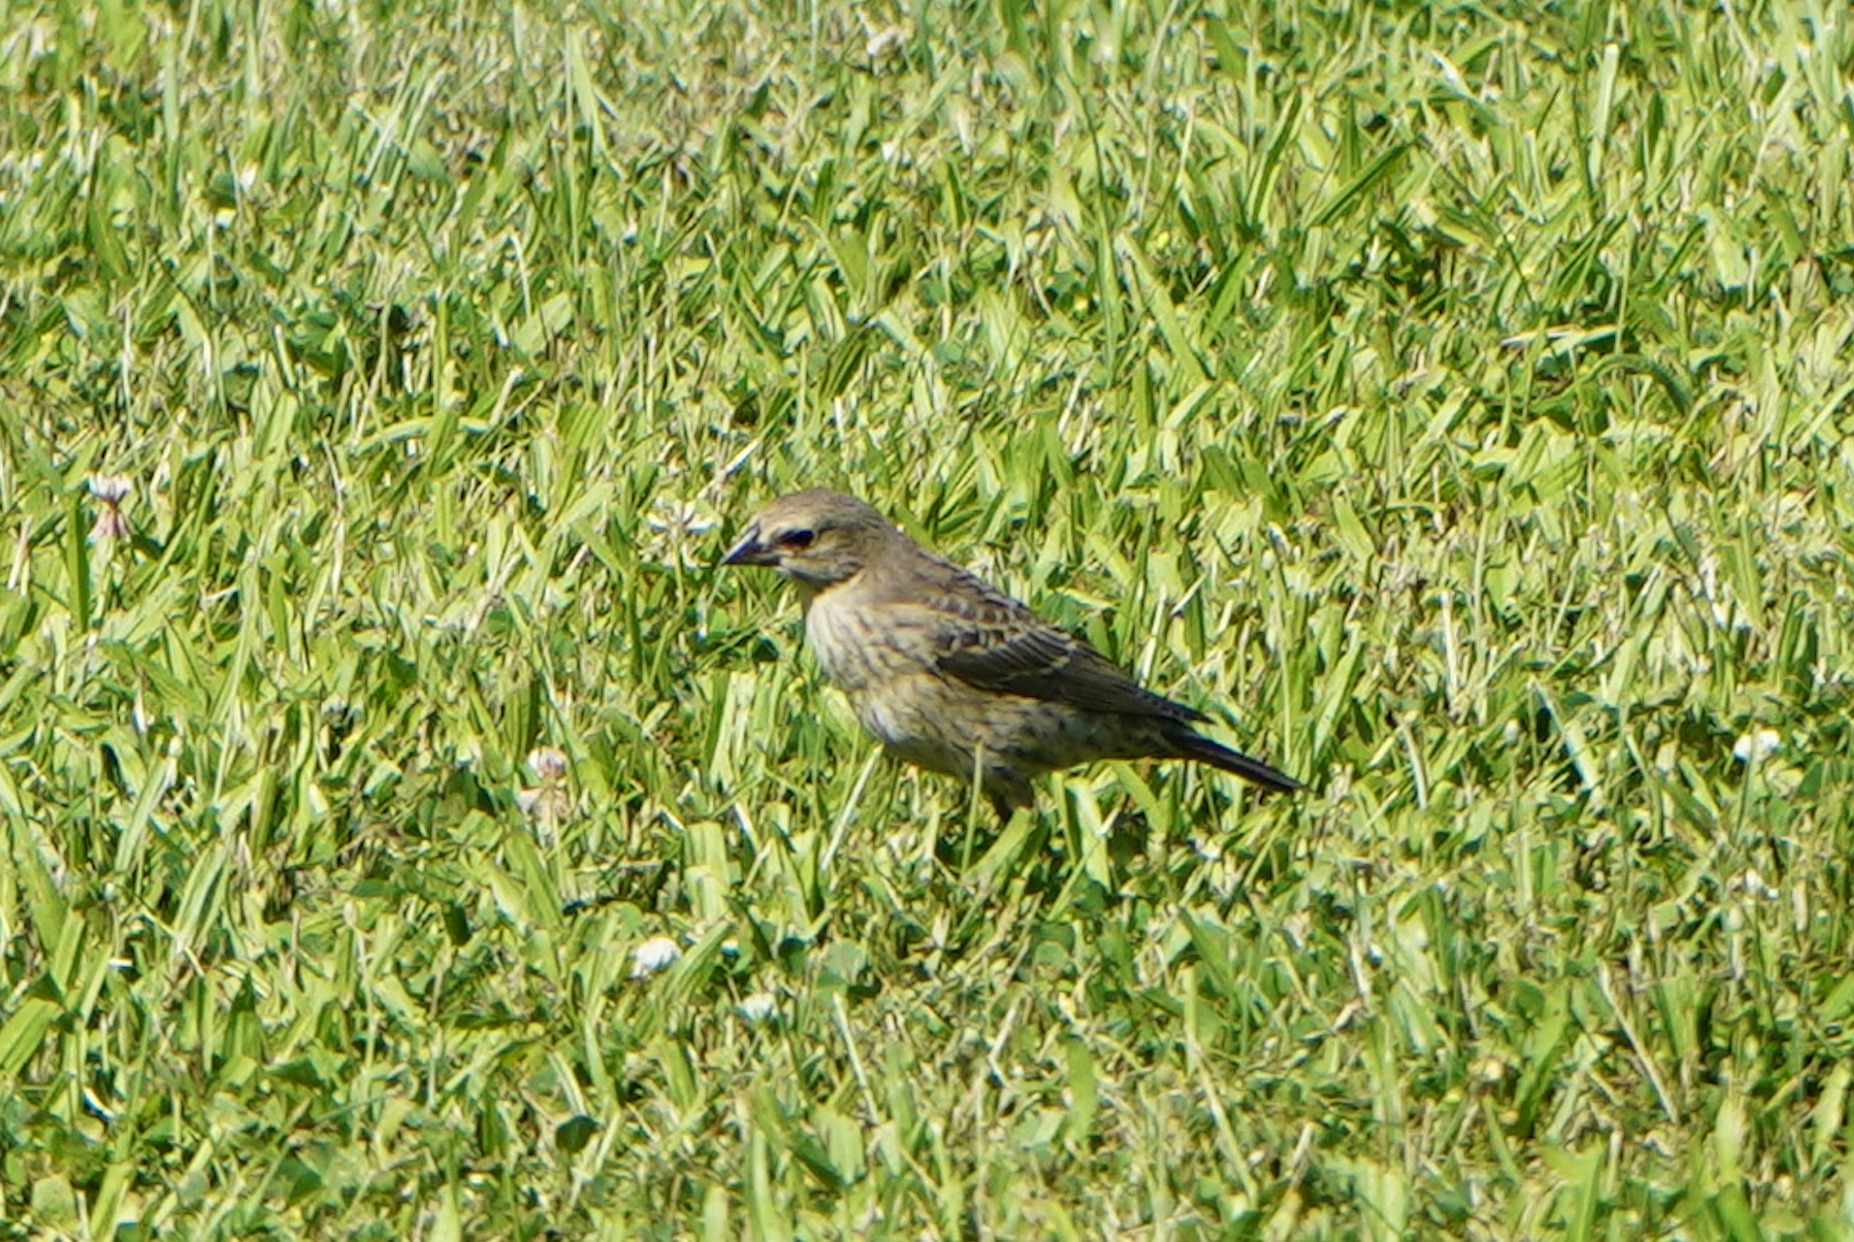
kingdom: Animalia
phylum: Chordata
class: Aves
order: Passeriformes
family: Icteridae
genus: Molothrus
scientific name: Molothrus ater
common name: Brown-headed cowbird
